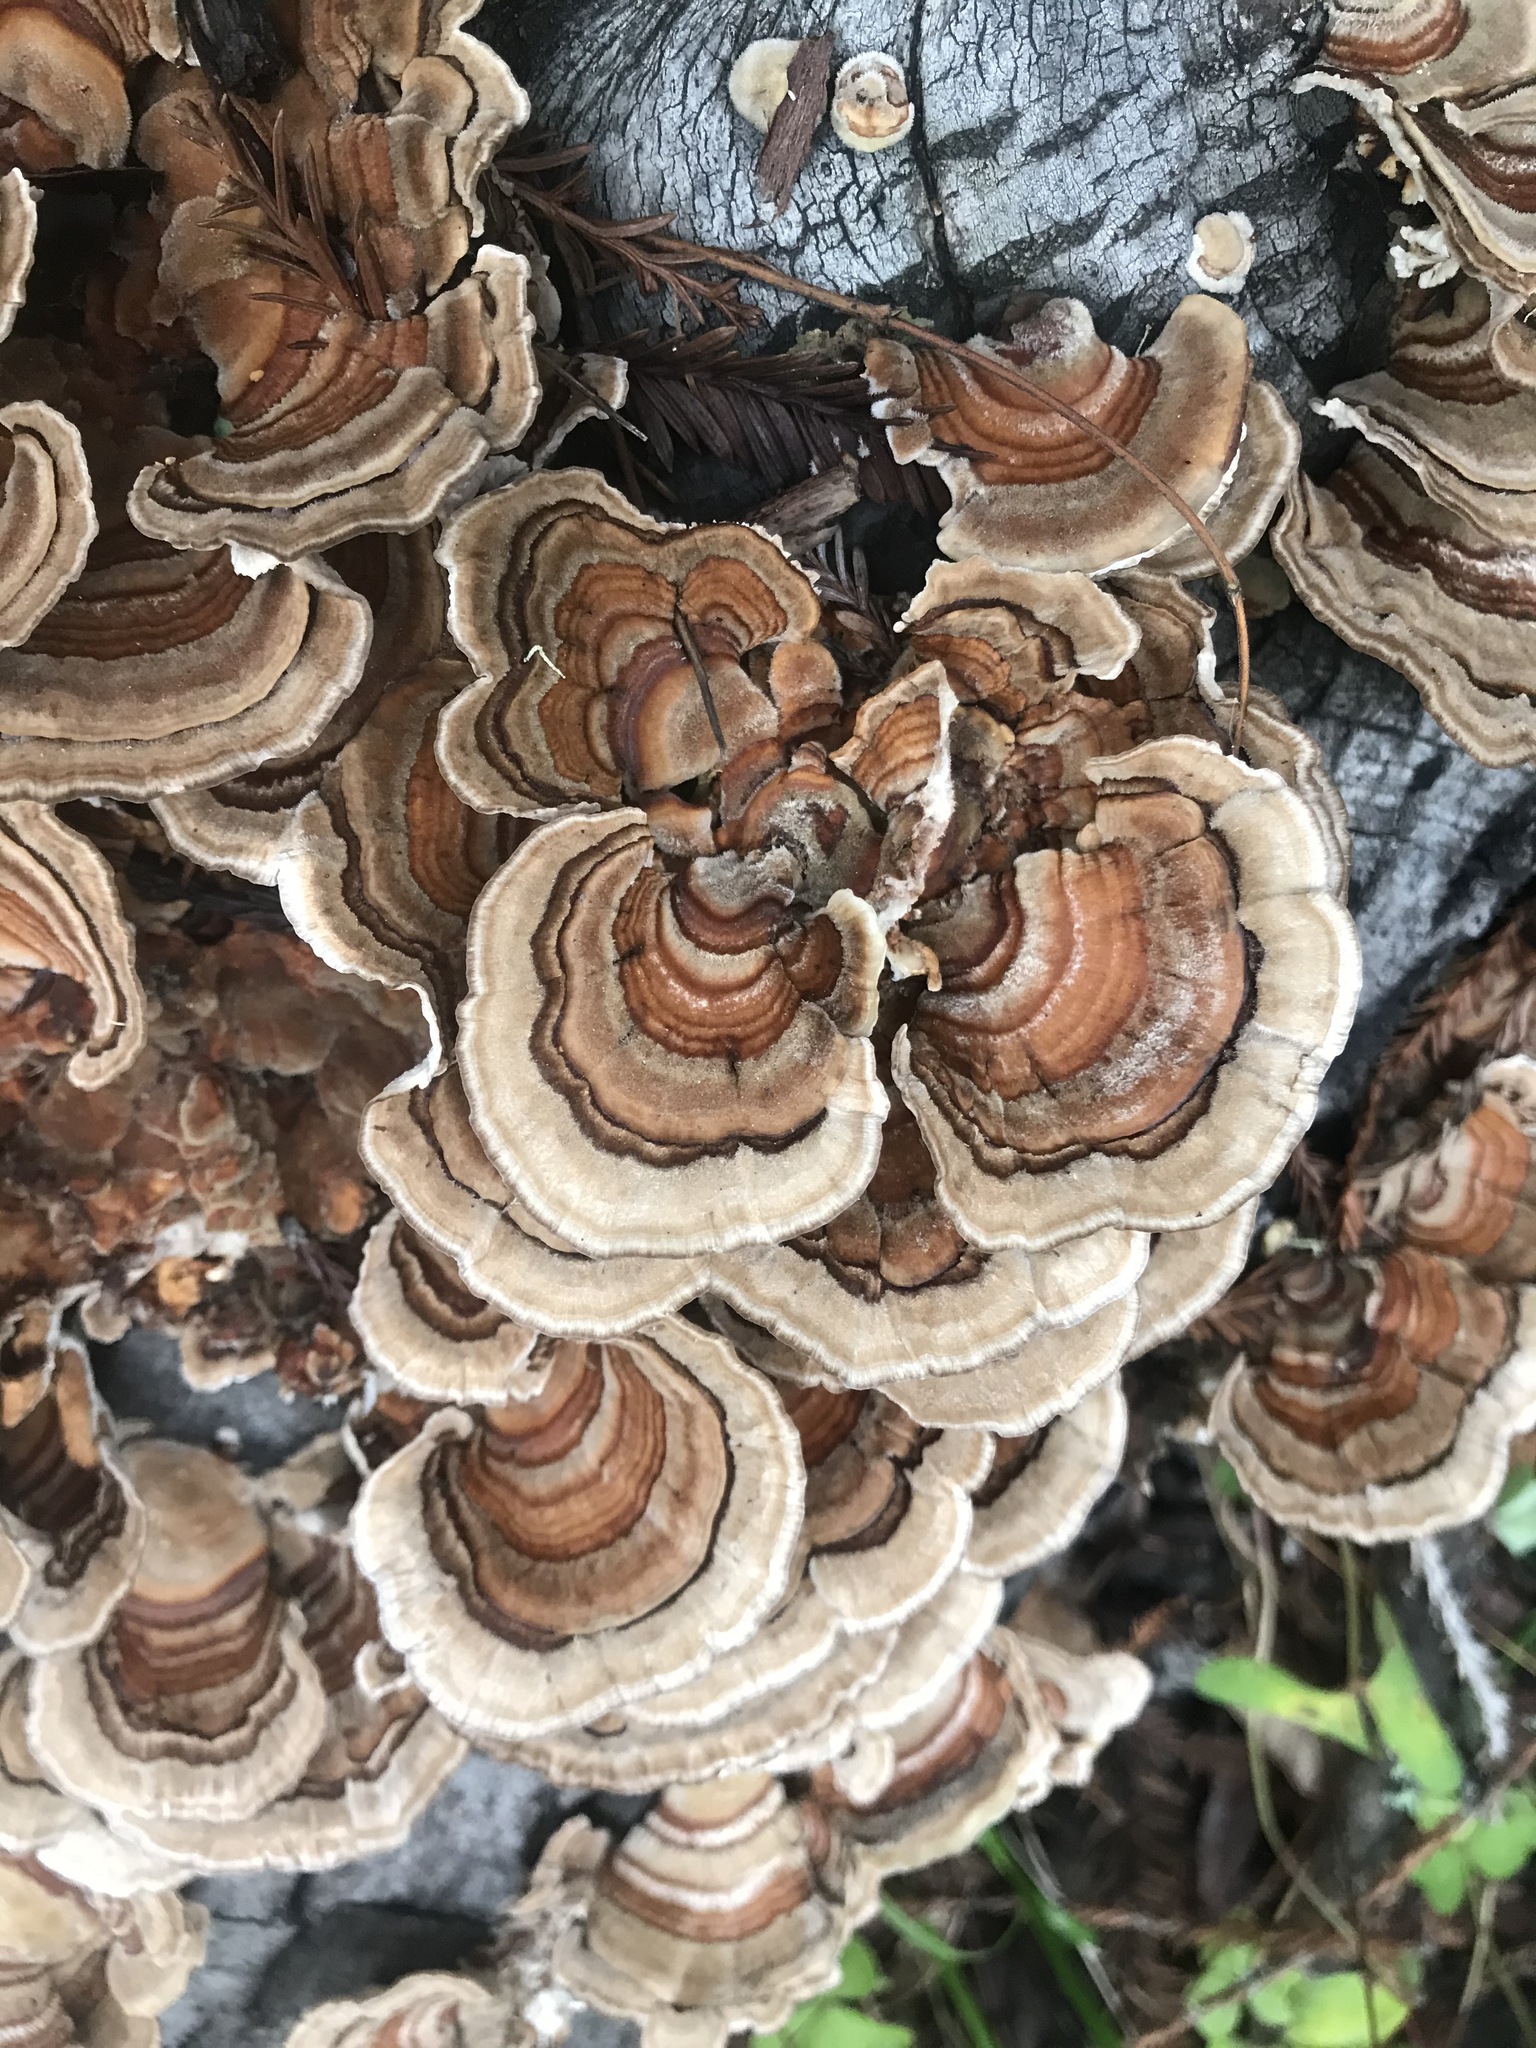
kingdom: Fungi
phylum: Basidiomycota
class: Agaricomycetes
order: Polyporales
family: Polyporaceae
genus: Trametes
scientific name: Trametes versicolor
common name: Turkeytail
